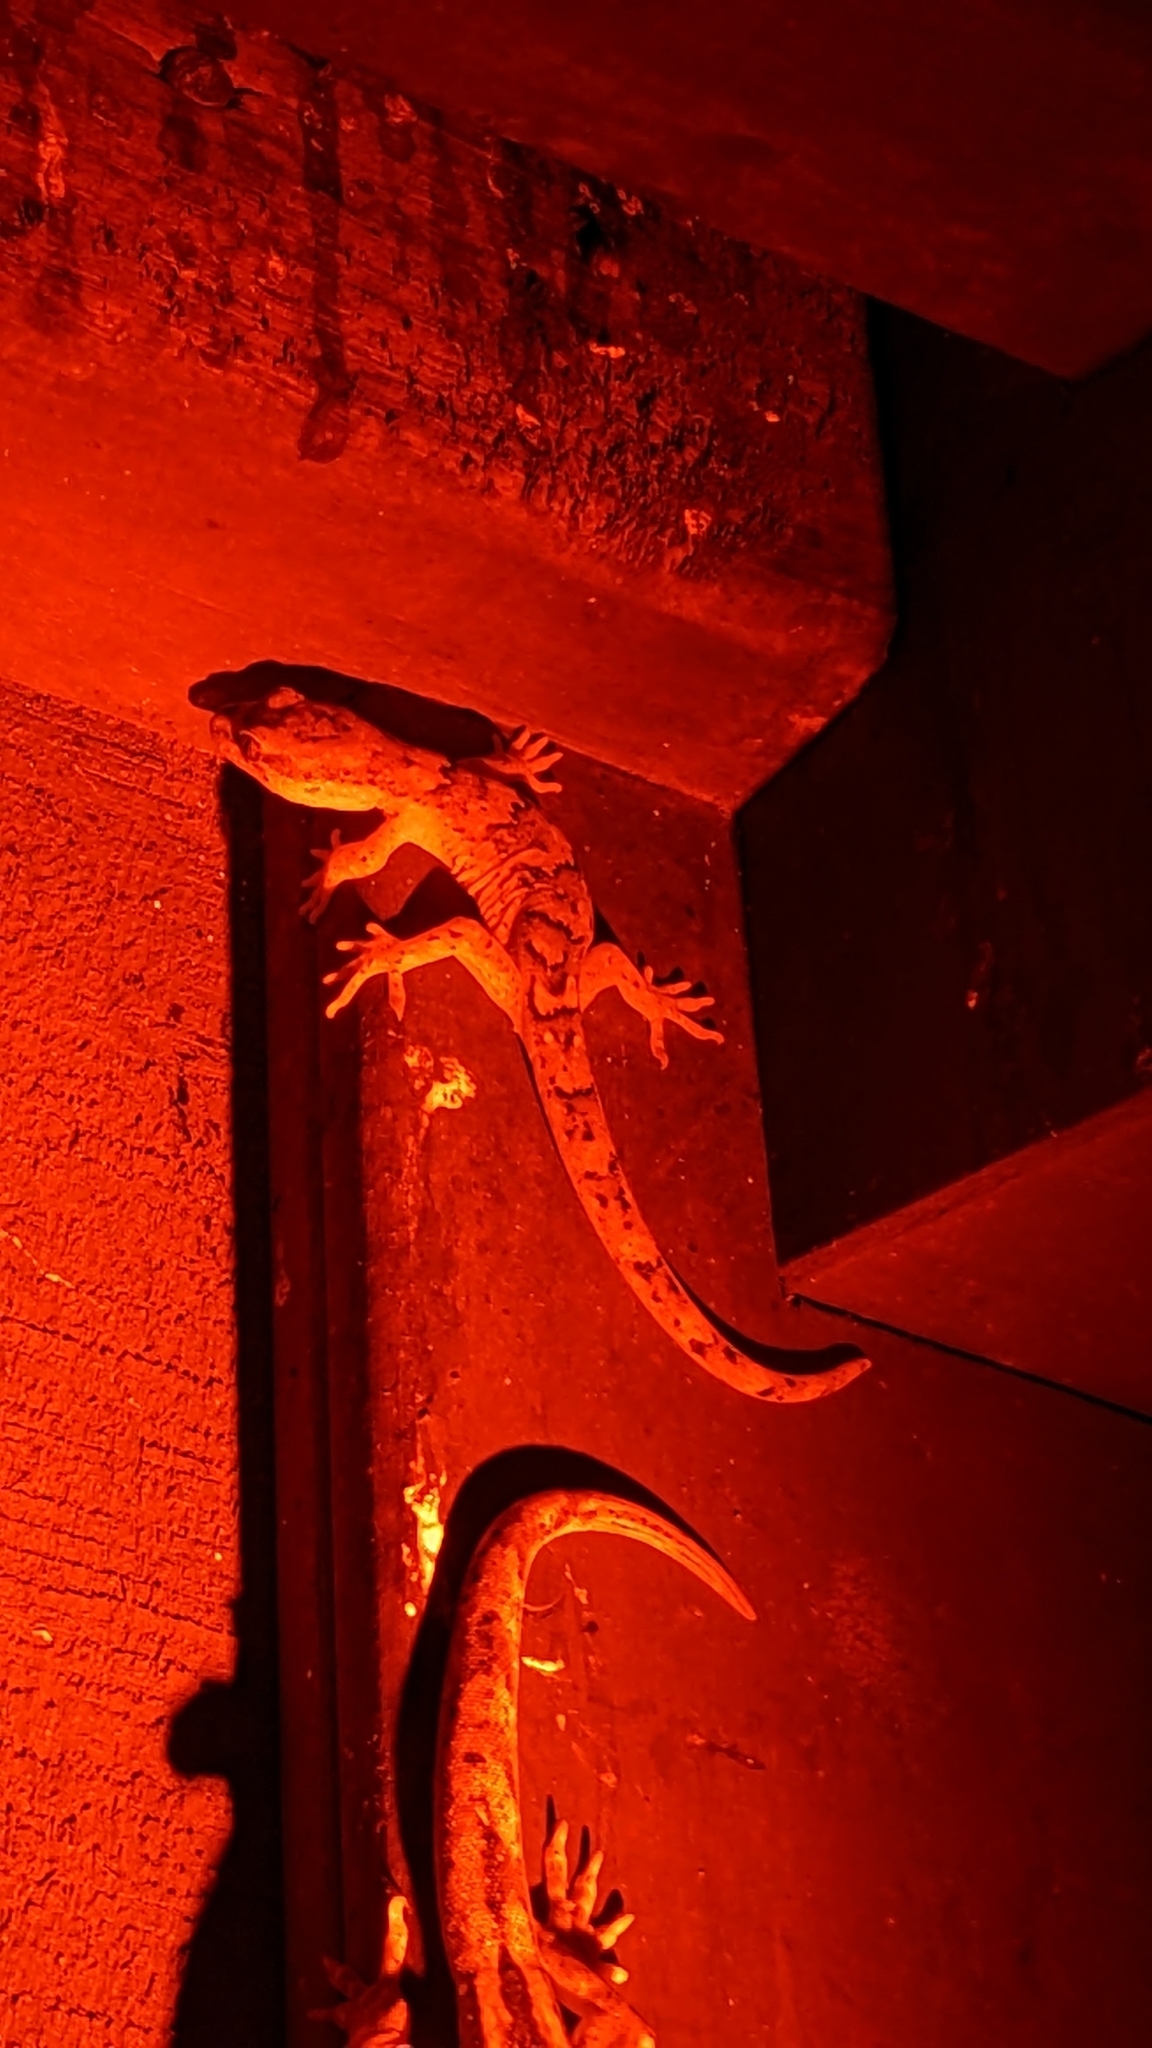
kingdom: Animalia
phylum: Chordata
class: Squamata
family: Diplodactylidae
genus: Woodworthia
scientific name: Woodworthia maculata
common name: Raukawa gecko
